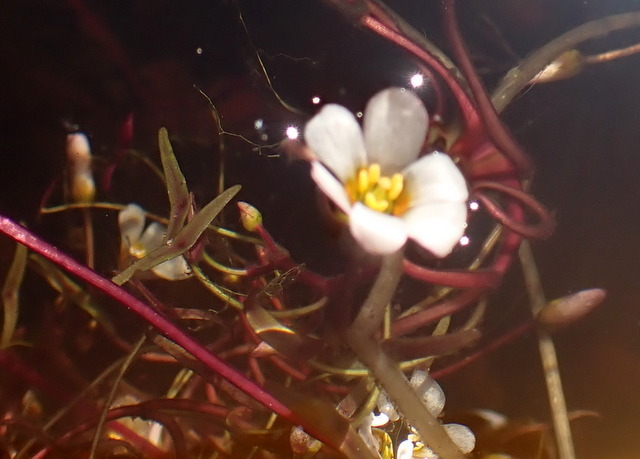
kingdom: Plantae
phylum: Tracheophyta
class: Magnoliopsida
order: Nymphaeales
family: Cabombaceae
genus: Cabomba
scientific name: Cabomba caroliniana
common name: Fanwort
